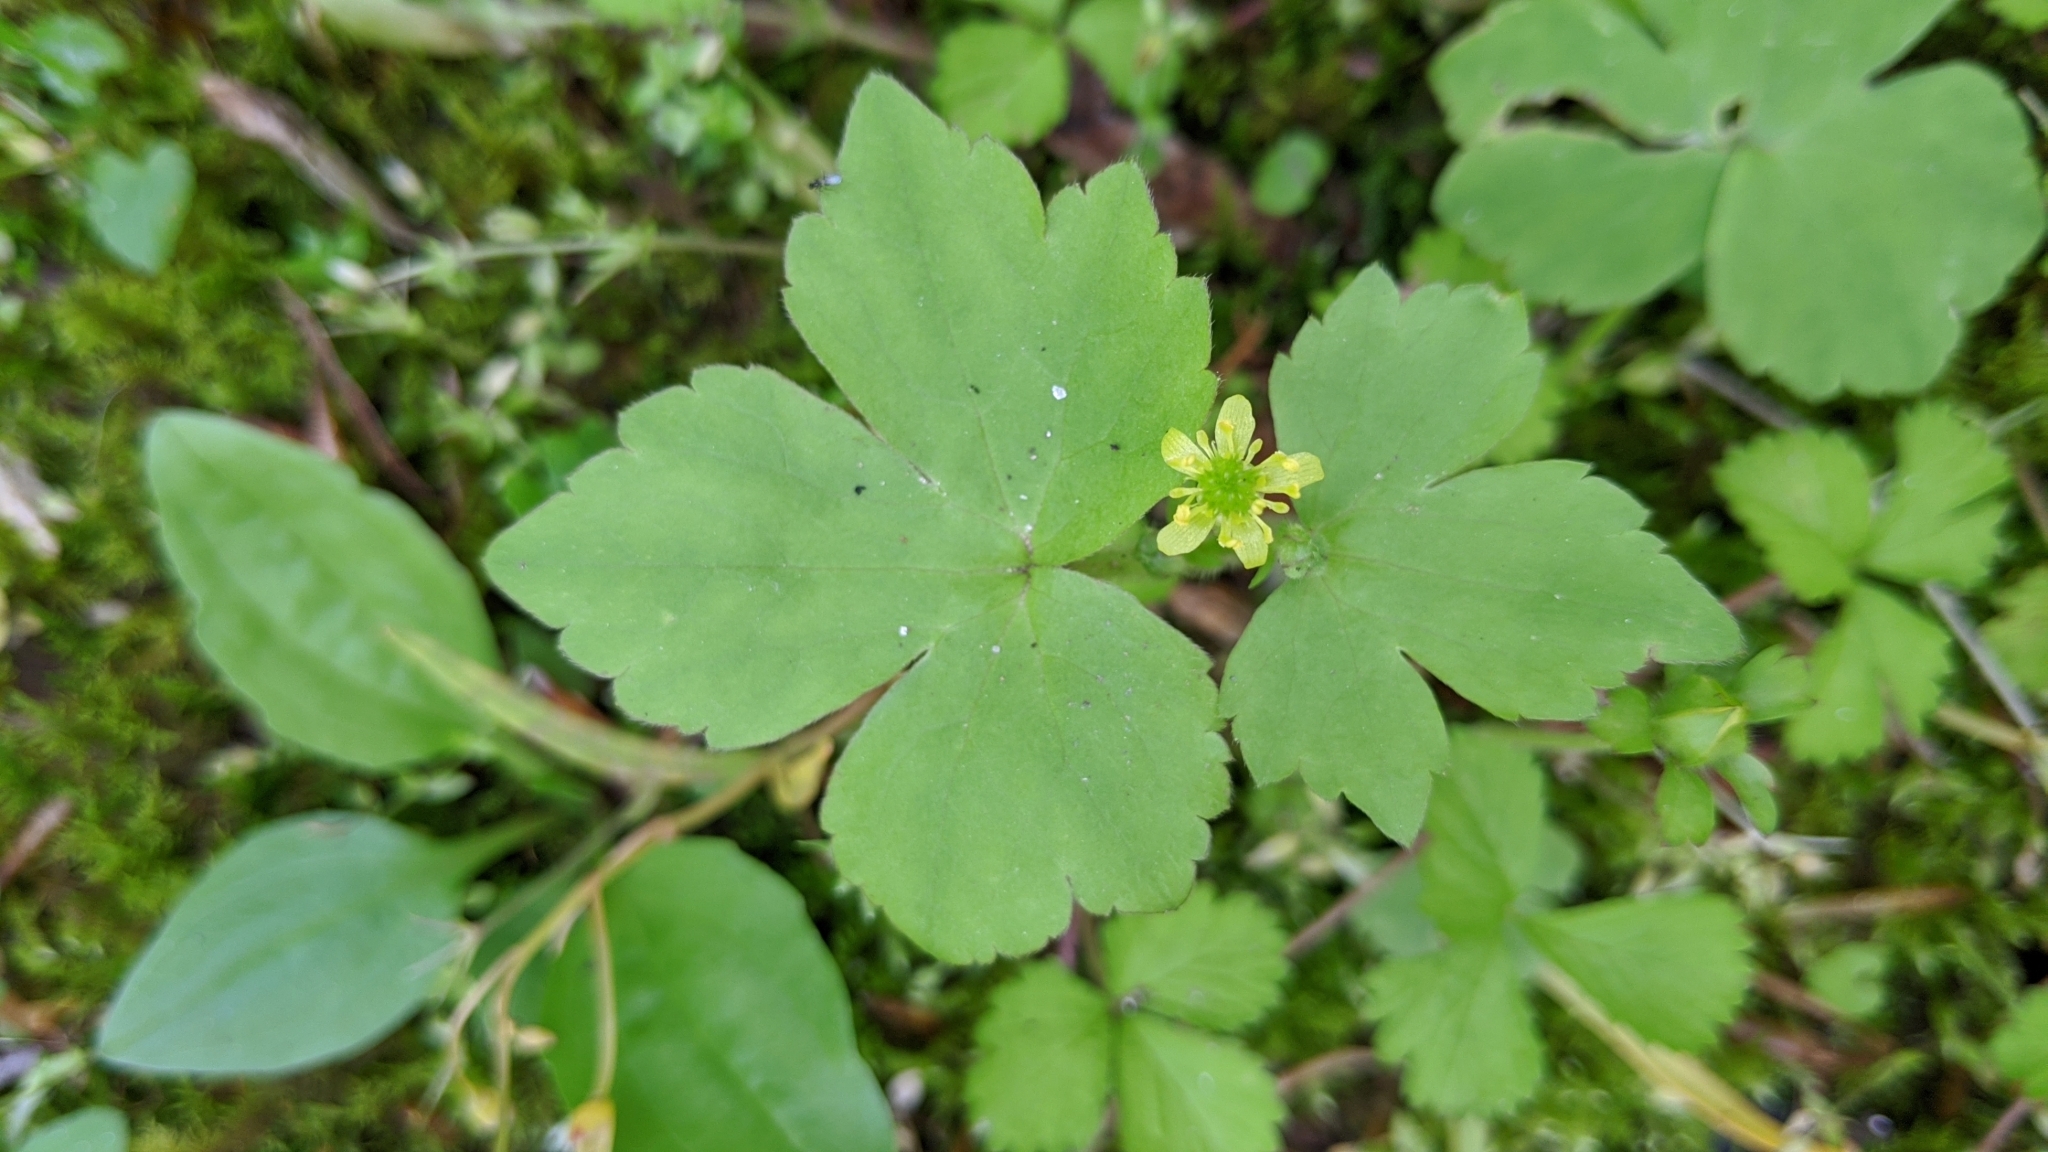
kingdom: Plantae
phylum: Tracheophyta
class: Magnoliopsida
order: Ranunculales
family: Ranunculaceae
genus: Ranunculus
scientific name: Ranunculus recurvatus
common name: Blisterwort
